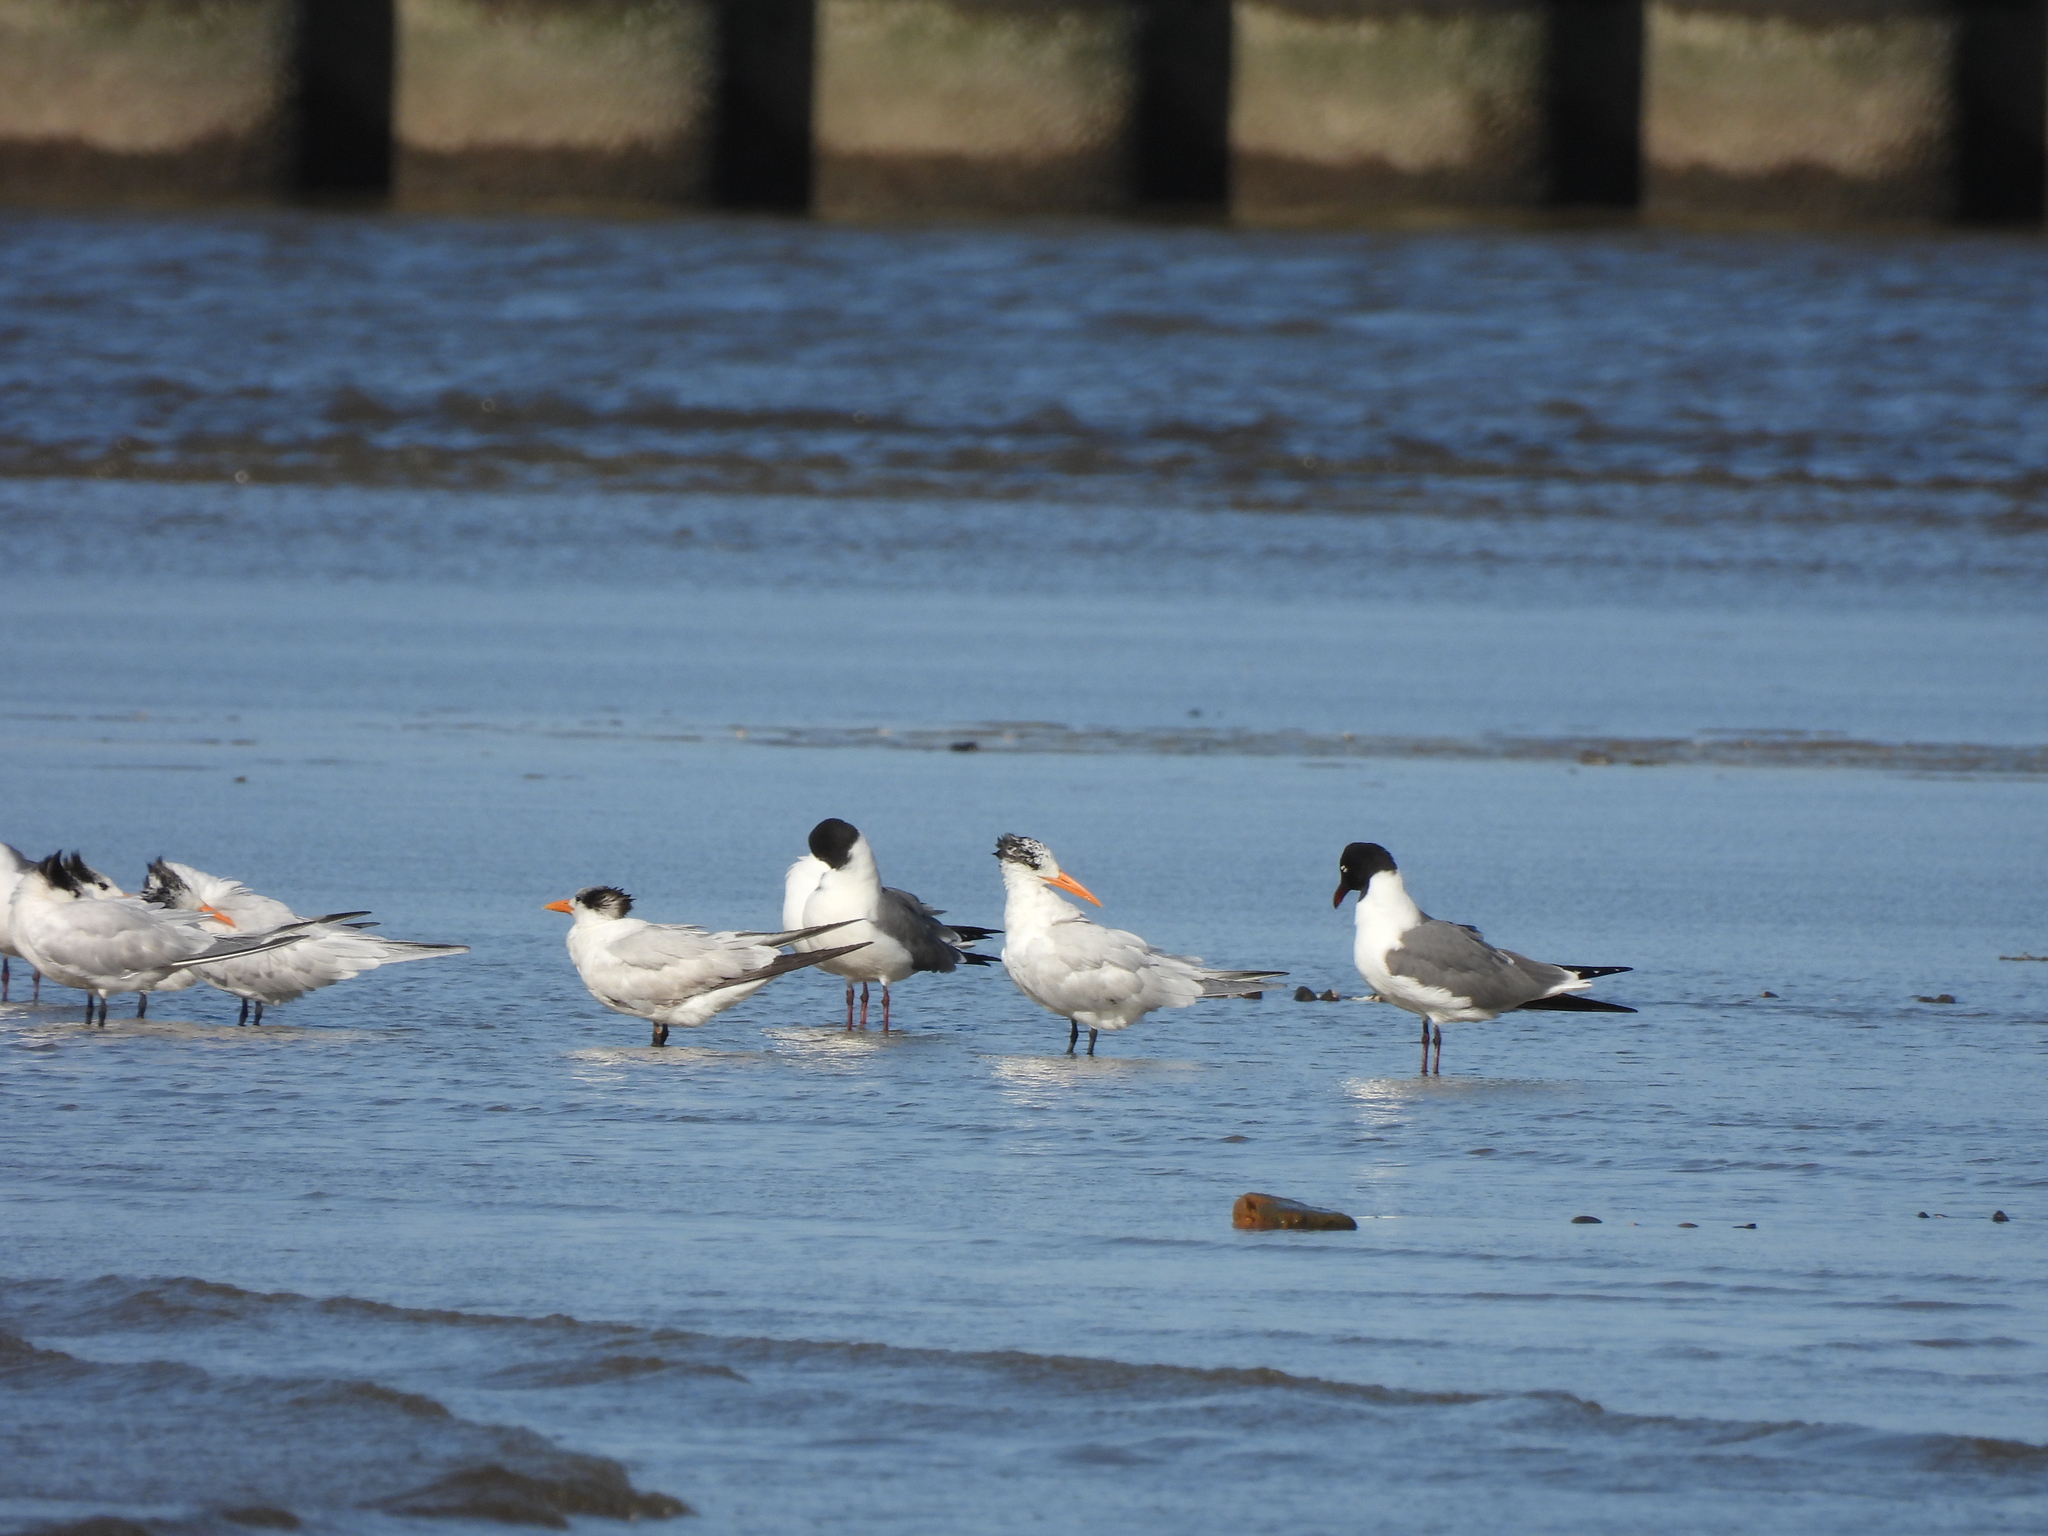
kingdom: Animalia
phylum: Chordata
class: Aves
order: Charadriiformes
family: Laridae
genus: Thalasseus
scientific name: Thalasseus maximus
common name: Royal tern
